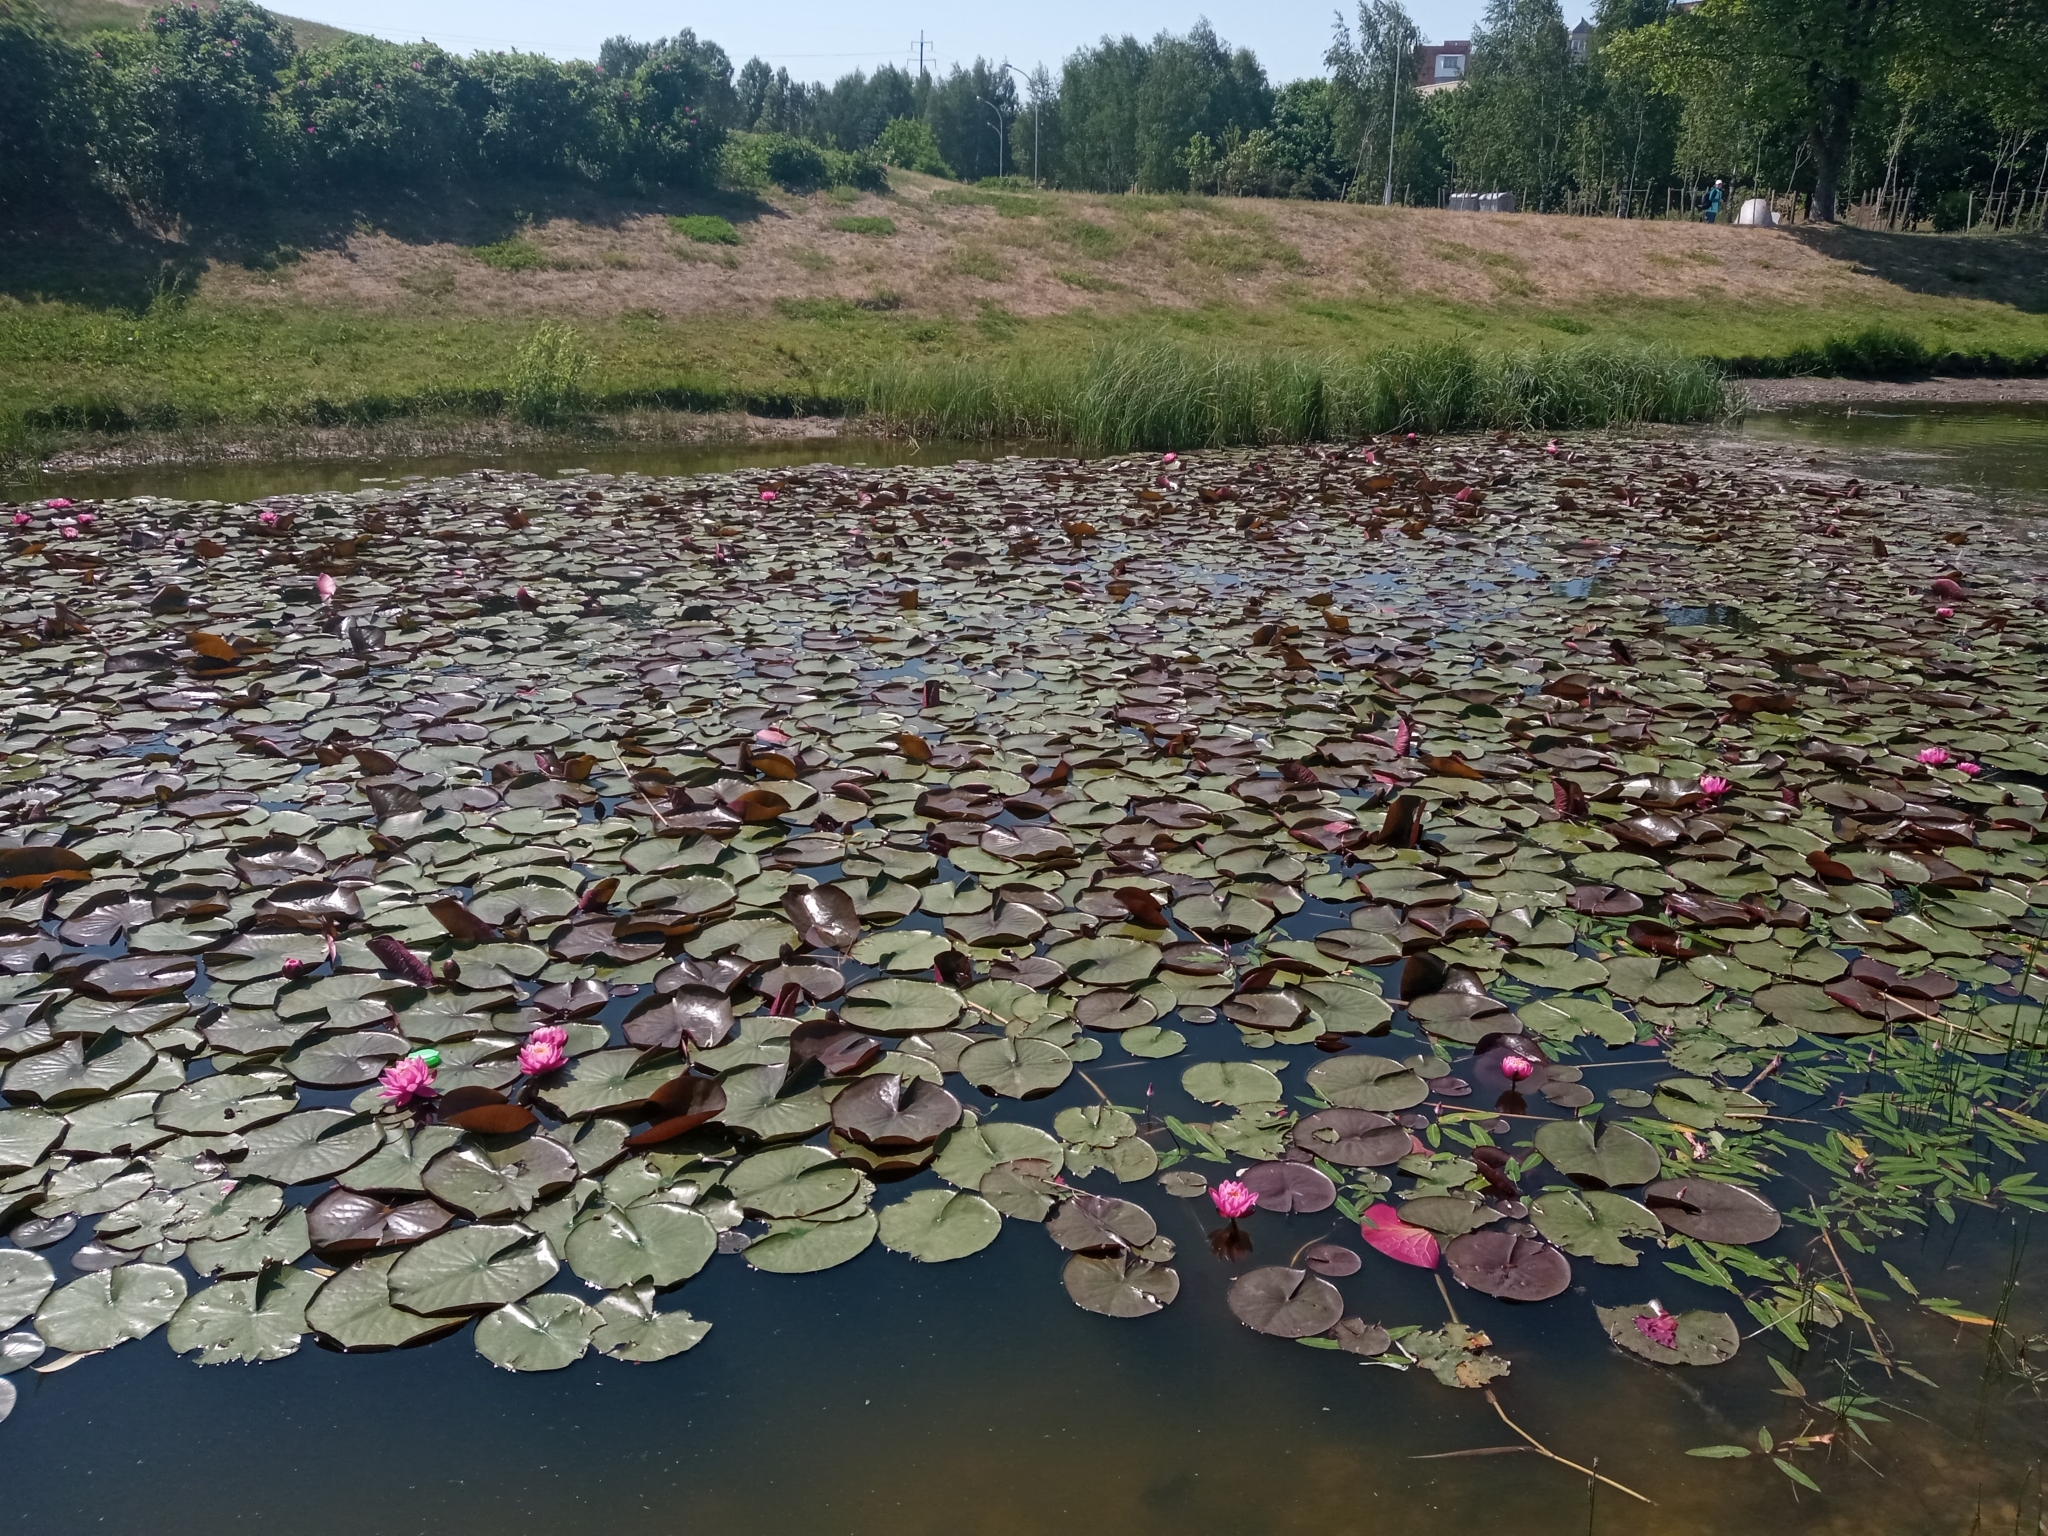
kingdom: Plantae
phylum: Tracheophyta
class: Magnoliopsida
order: Nymphaeales
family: Nymphaeaceae
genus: Nymphaea
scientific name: Nymphaea marliacea
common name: Water-lily
